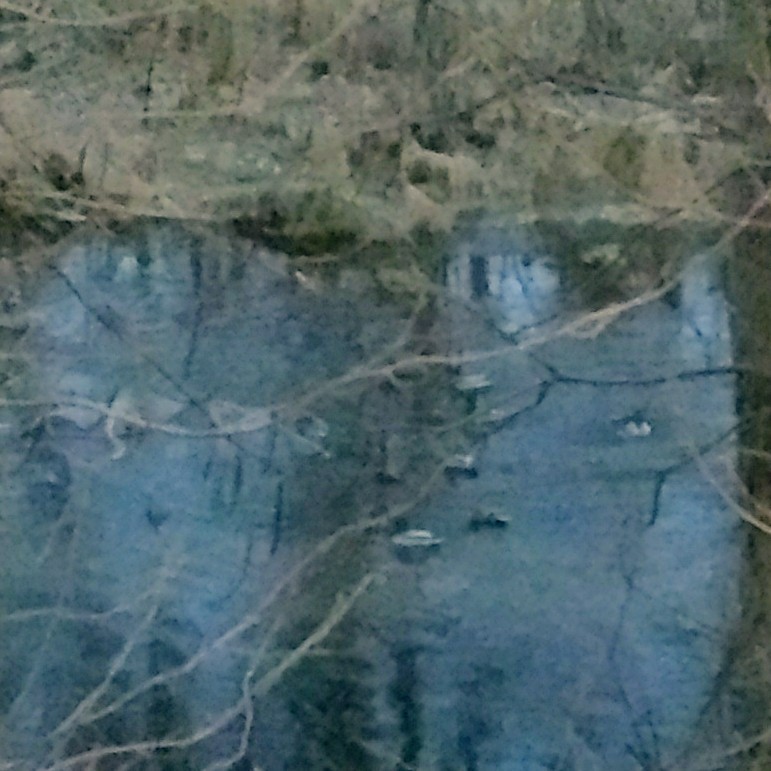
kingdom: Animalia
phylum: Chordata
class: Aves
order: Anseriformes
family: Anatidae
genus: Anas
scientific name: Anas platyrhynchos
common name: Mallard
